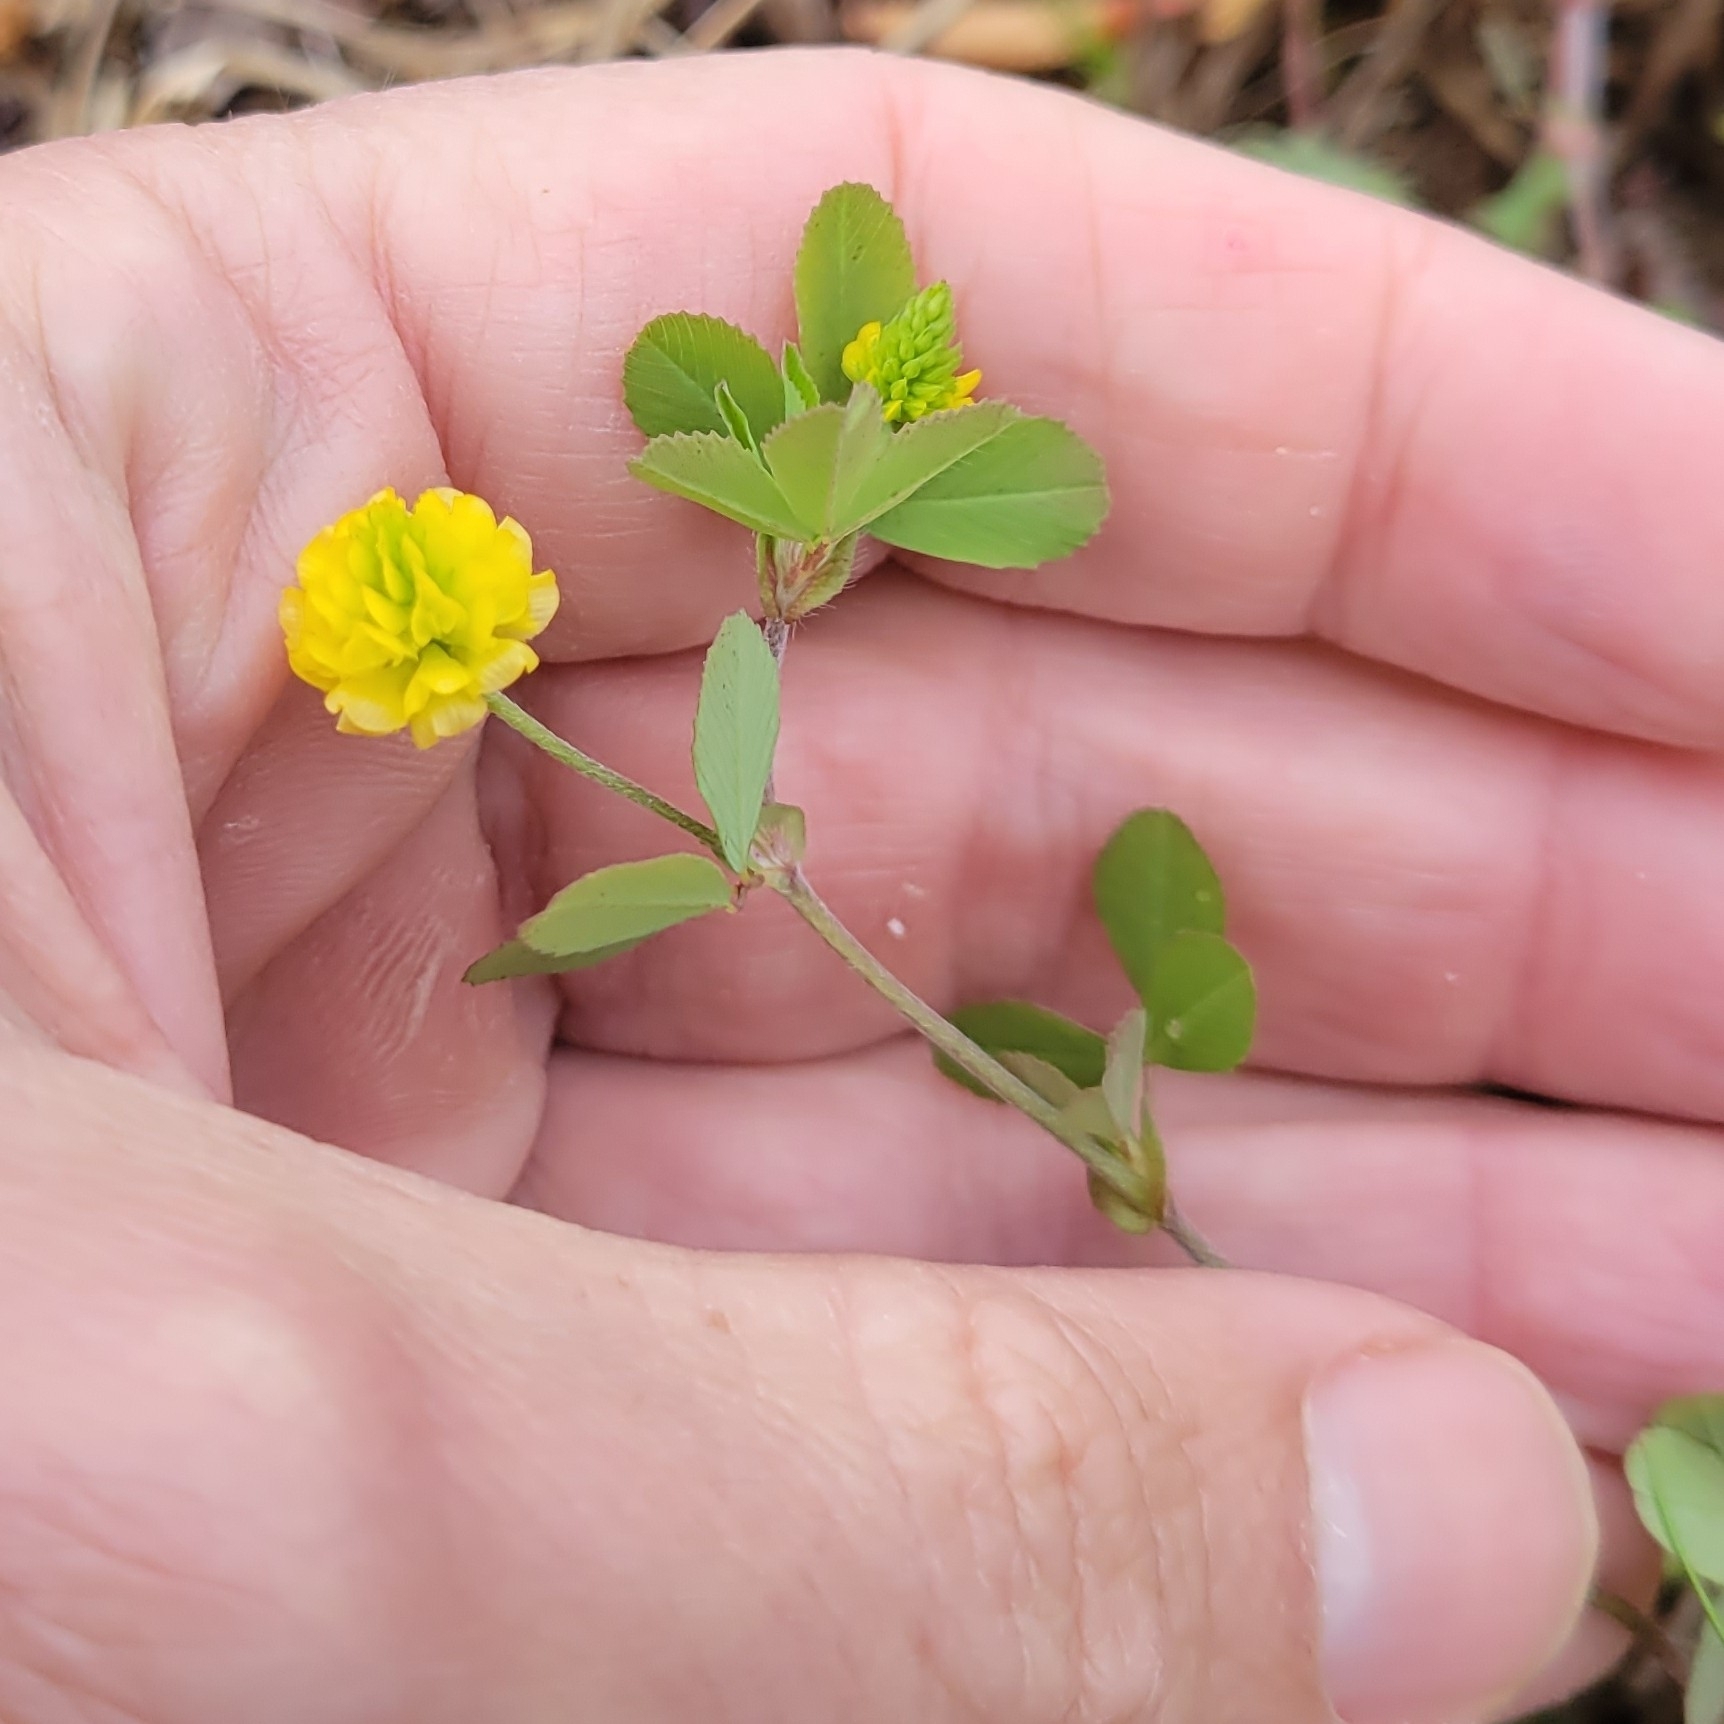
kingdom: Plantae
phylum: Tracheophyta
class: Magnoliopsida
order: Fabales
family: Fabaceae
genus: Trifolium
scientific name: Trifolium campestre
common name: Field clover
